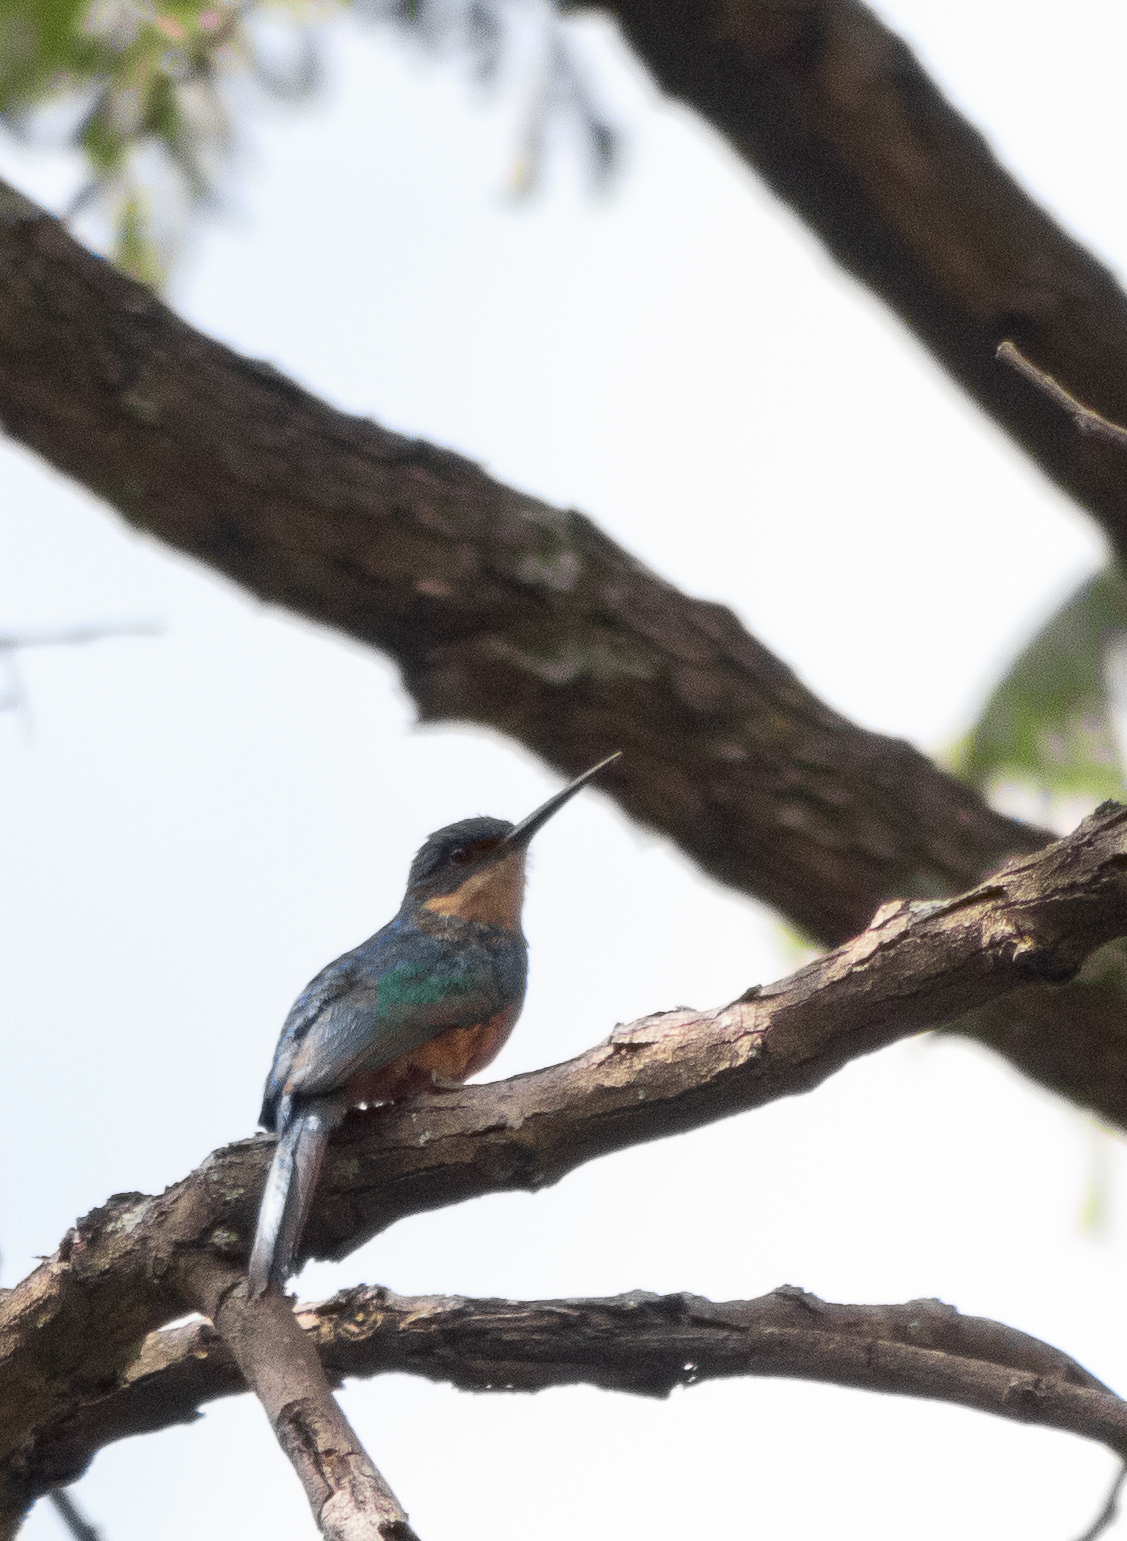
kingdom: Animalia
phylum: Chordata
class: Aves
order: Piciformes
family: Galbulidae
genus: Galbula
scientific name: Galbula ruficauda
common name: Rufous-tailed jacamar
